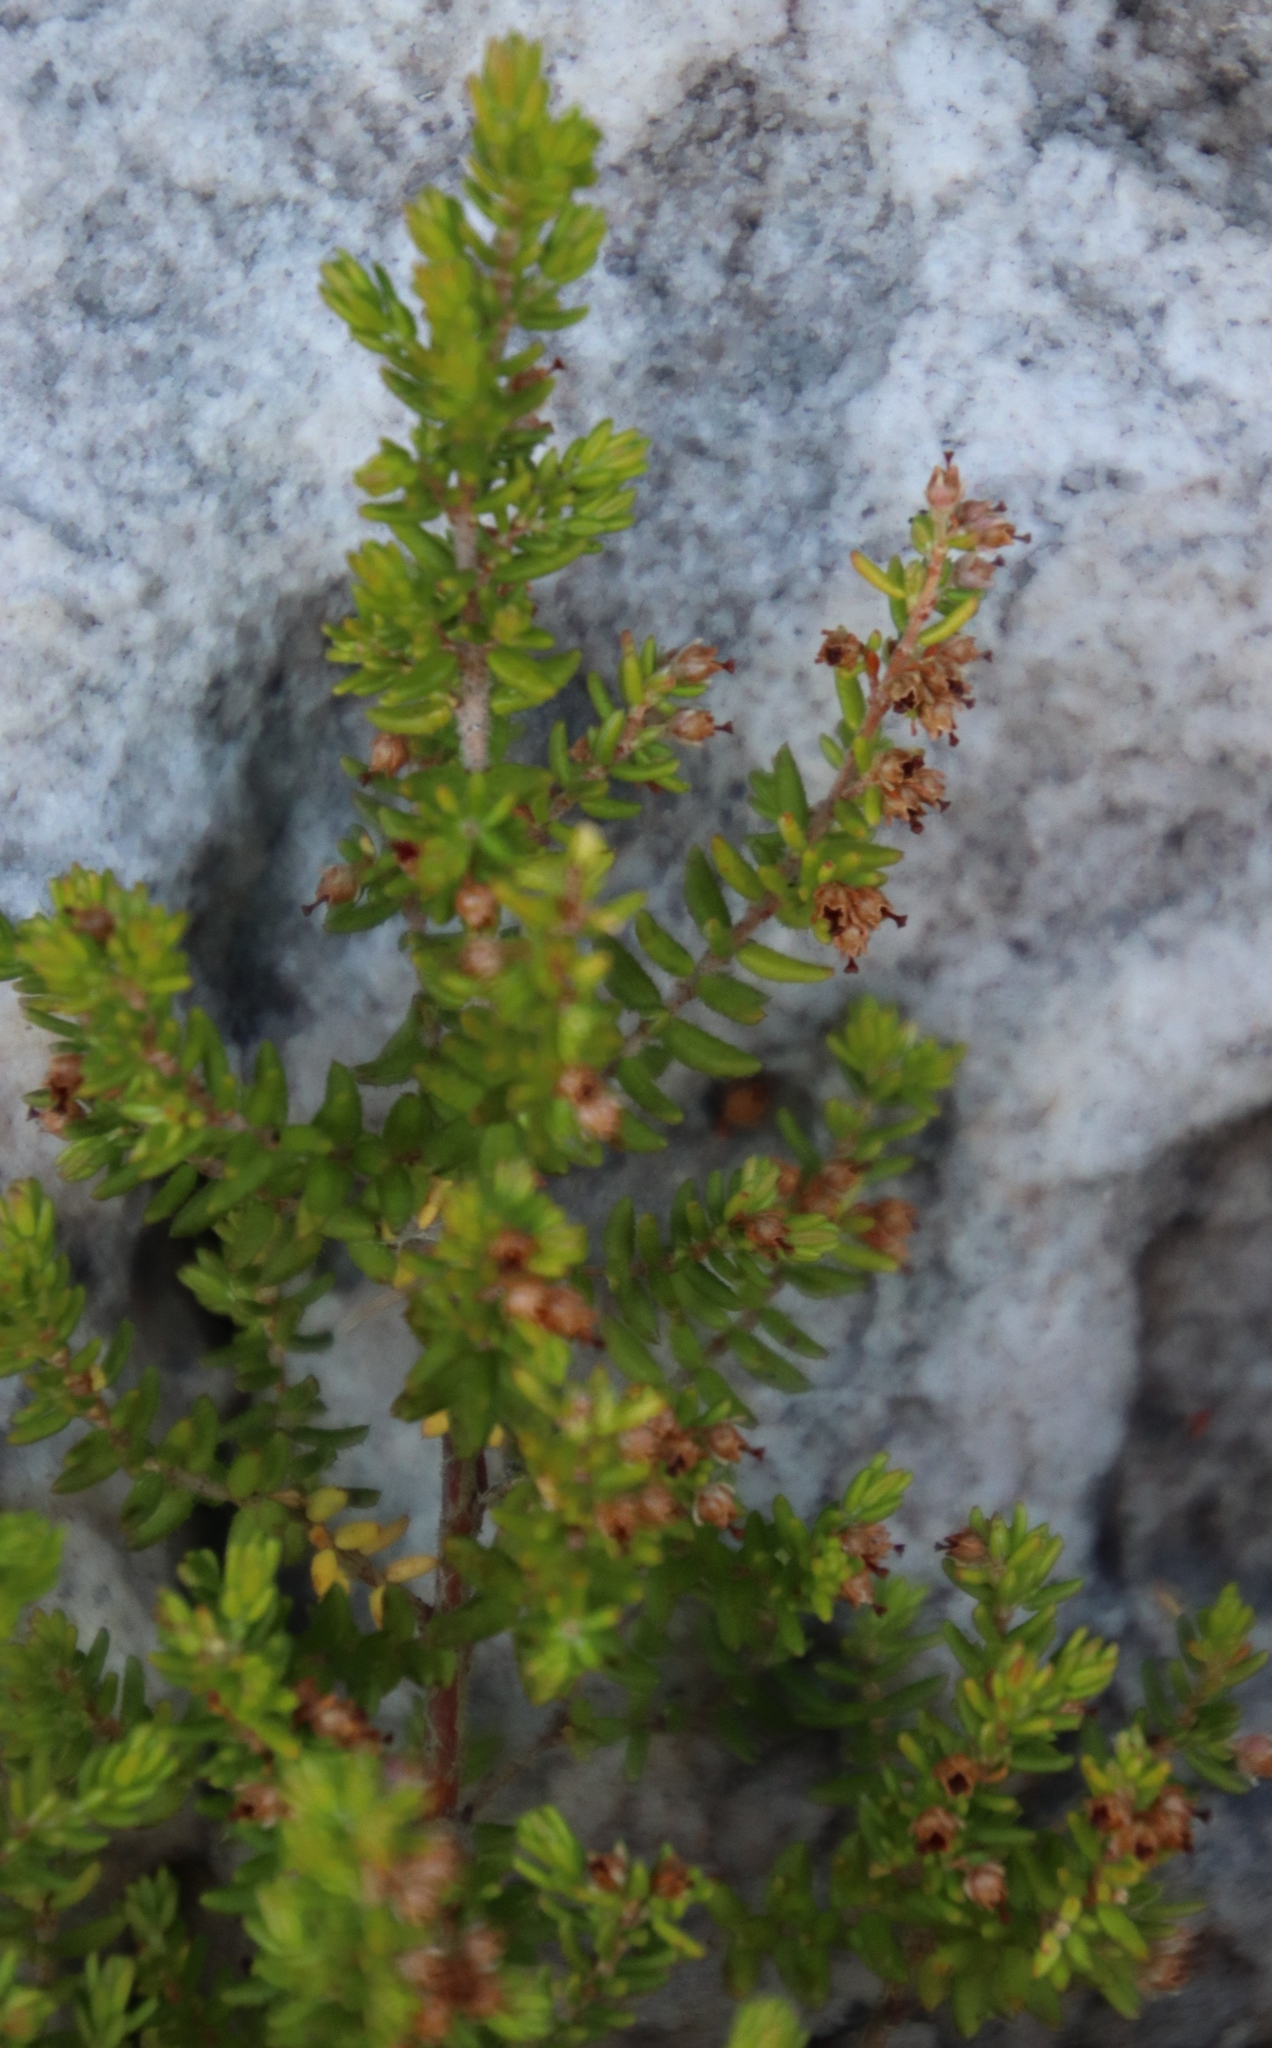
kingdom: Plantae
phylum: Tracheophyta
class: Magnoliopsida
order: Ericales
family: Ericaceae
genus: Erica
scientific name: Erica hispidula
